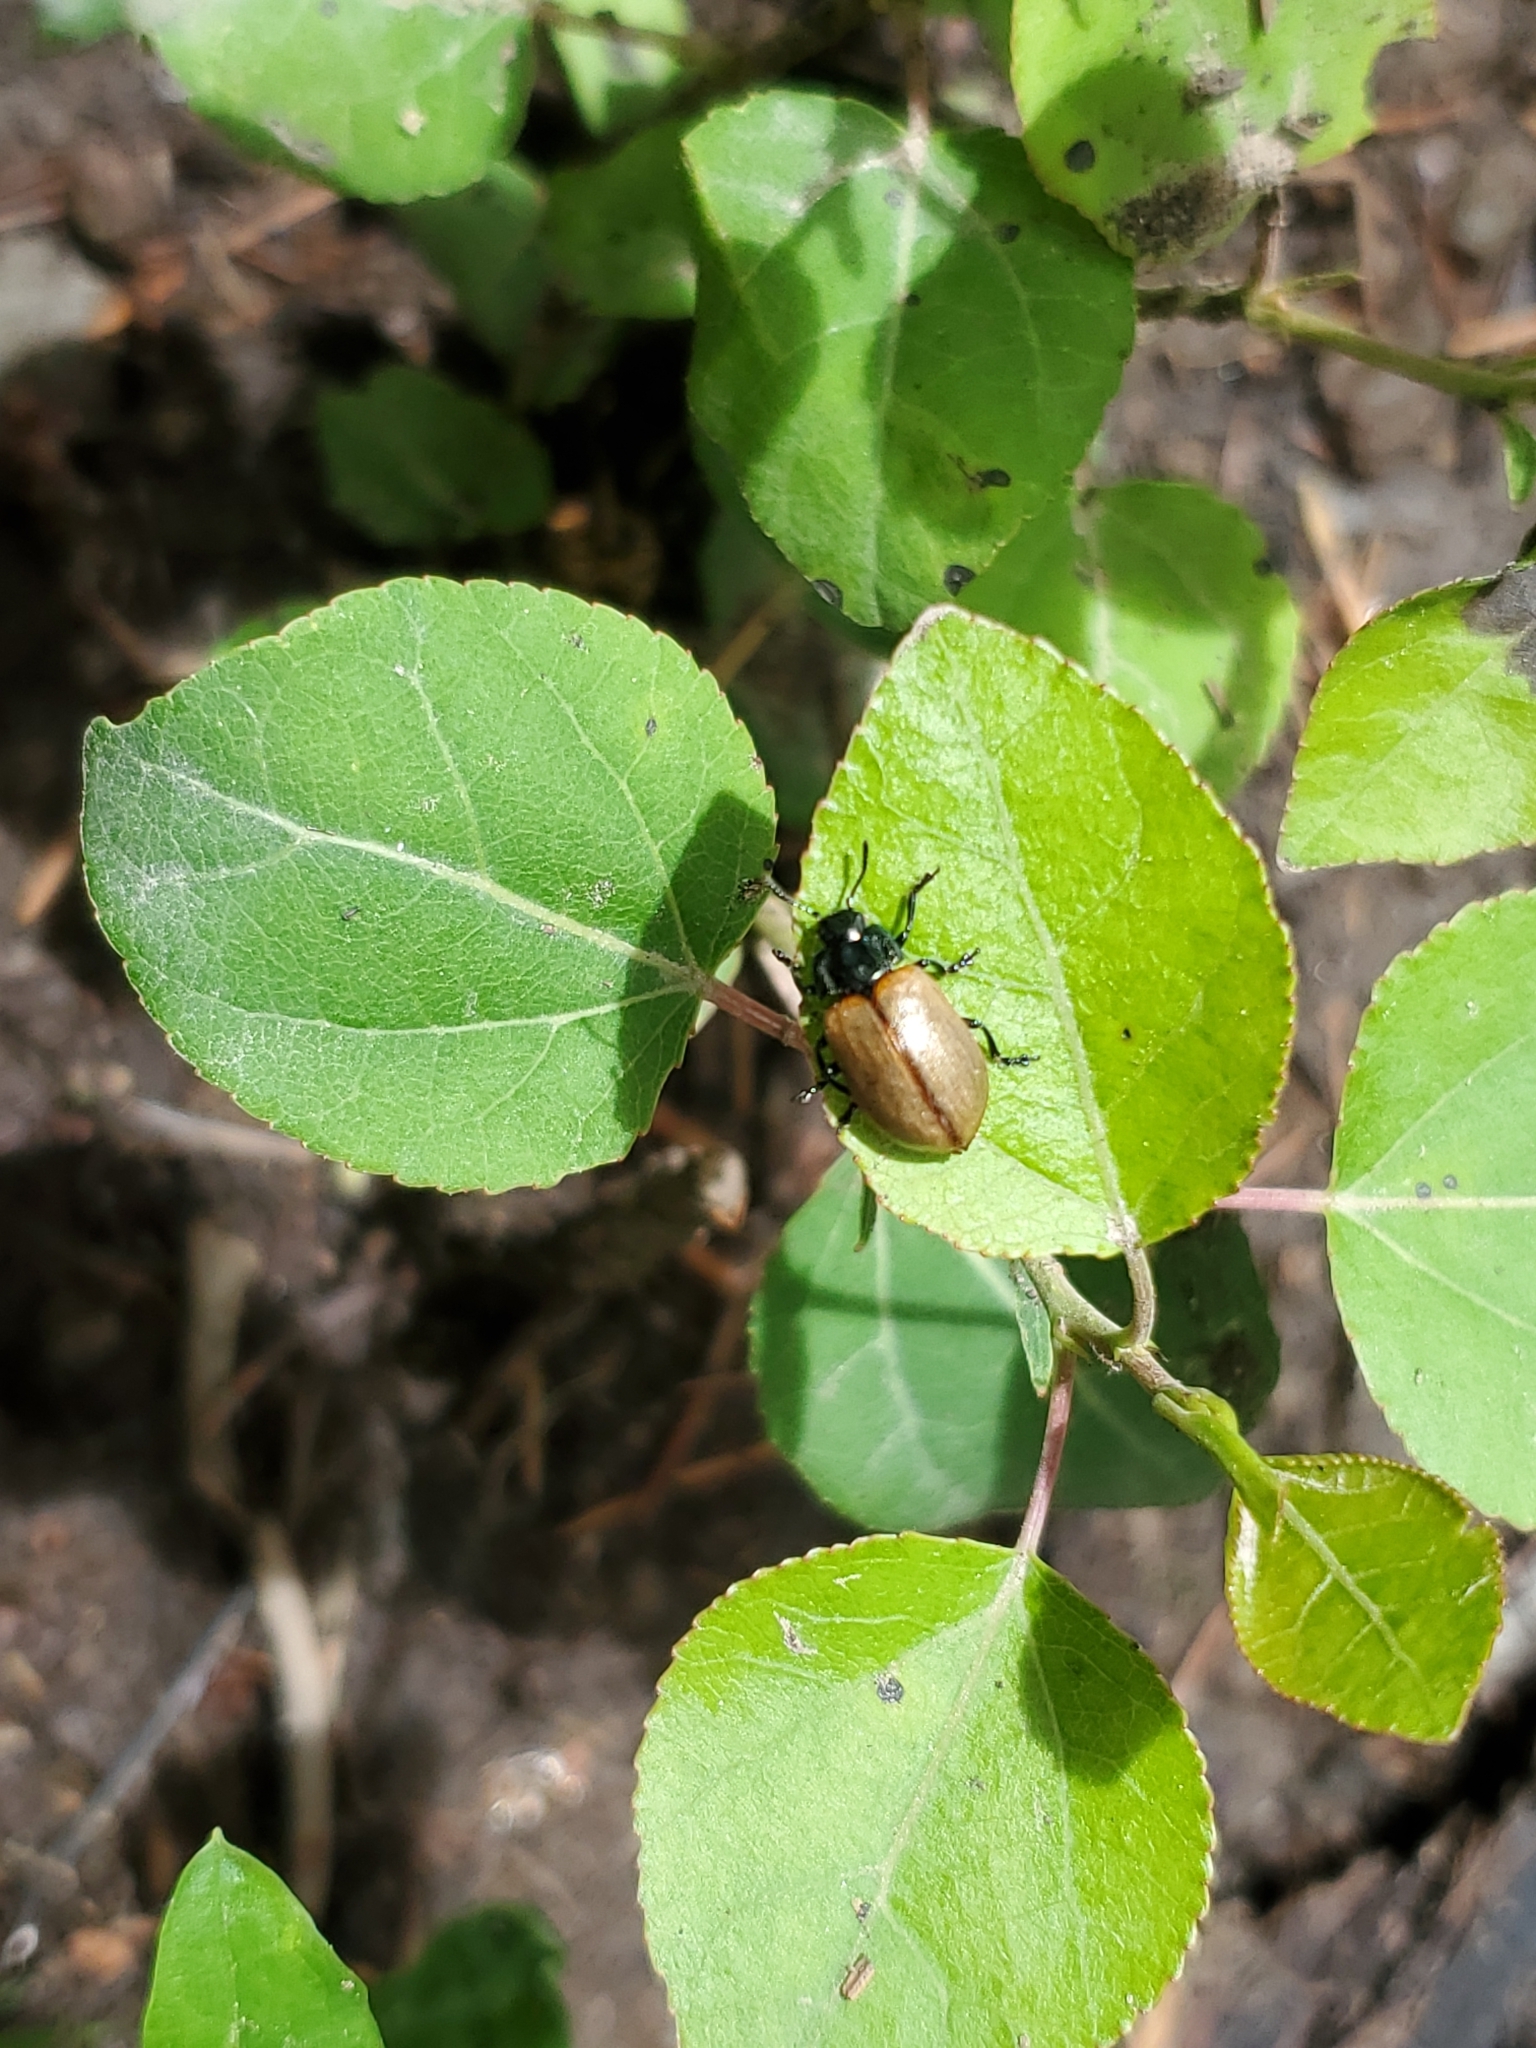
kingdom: Animalia
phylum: Arthropoda
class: Insecta
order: Coleoptera
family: Chrysomelidae
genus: Chrysomela
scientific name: Chrysomela crotchi
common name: Leaf beetle
